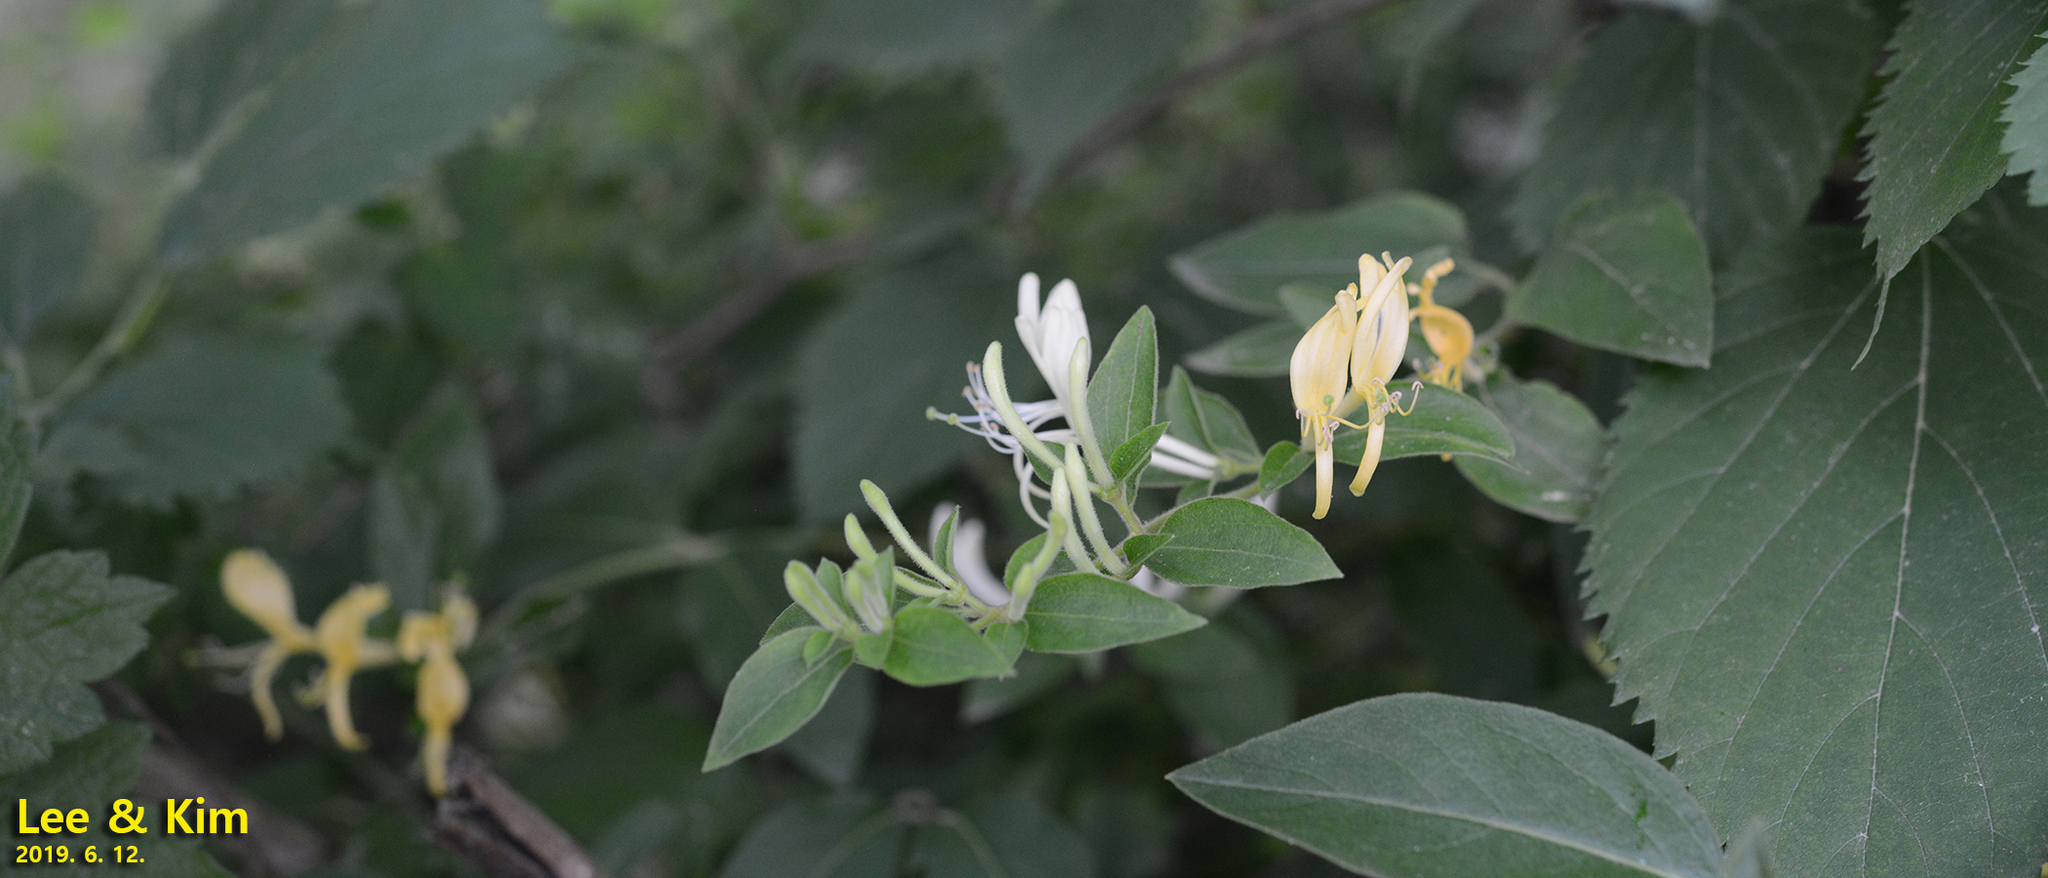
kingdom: Plantae
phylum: Tracheophyta
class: Magnoliopsida
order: Dipsacales
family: Caprifoliaceae
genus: Lonicera
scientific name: Lonicera japonica
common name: Japanese honeysuckle
